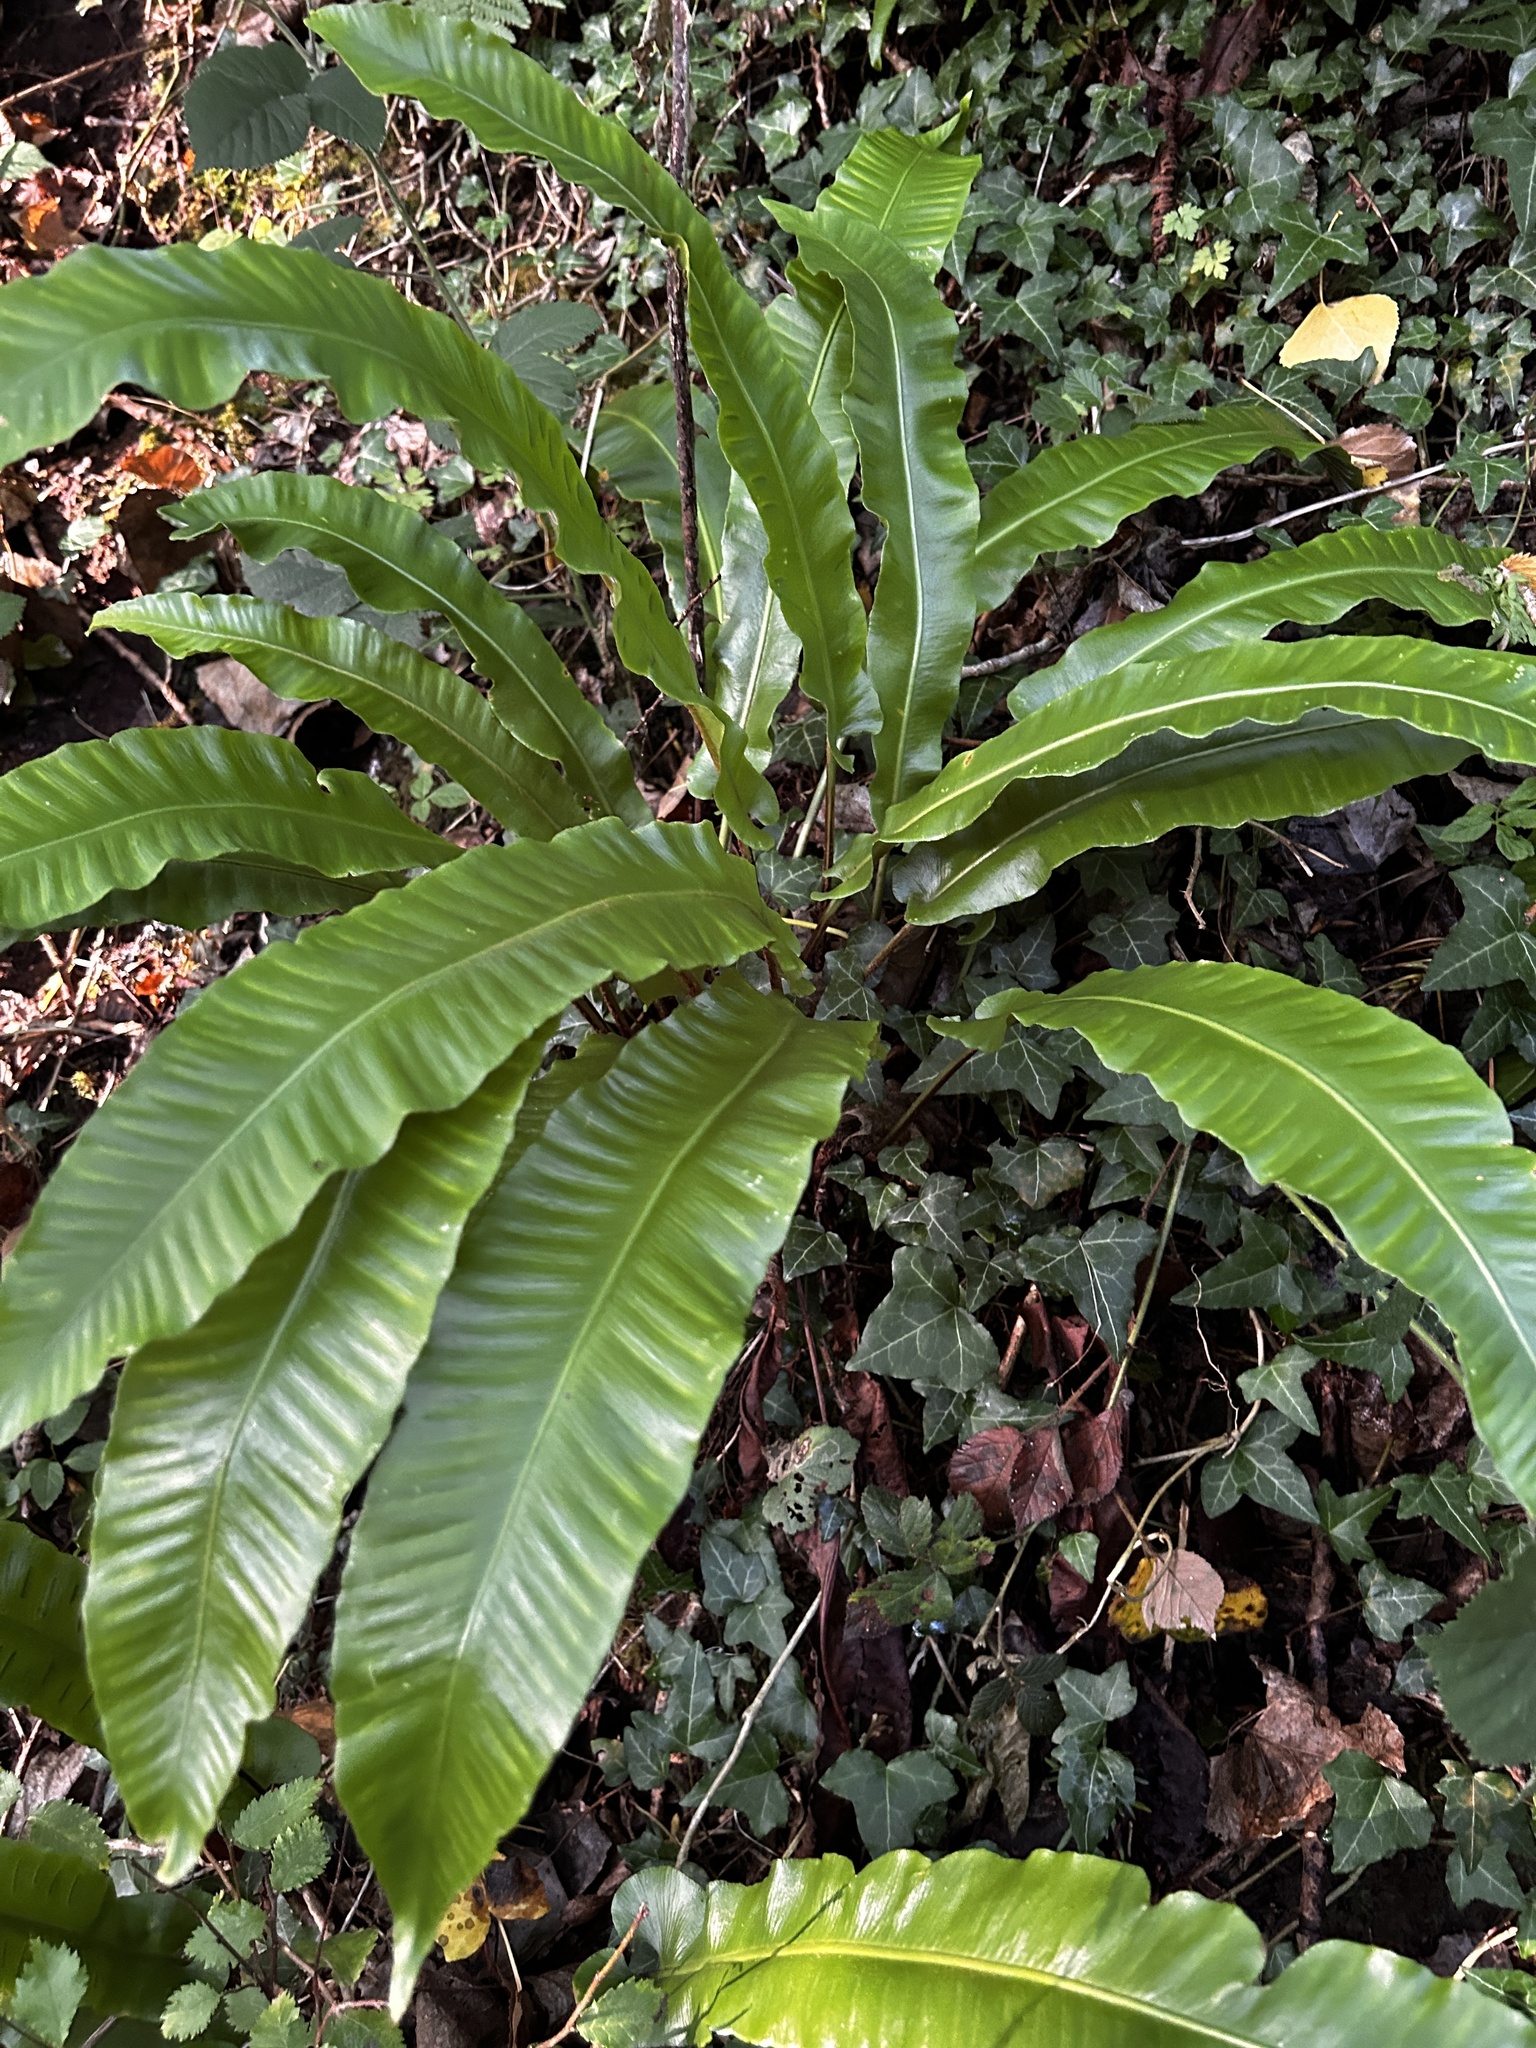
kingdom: Plantae
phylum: Tracheophyta
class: Polypodiopsida
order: Polypodiales
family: Aspleniaceae
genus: Asplenium
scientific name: Asplenium scolopendrium
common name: Hart's-tongue fern
